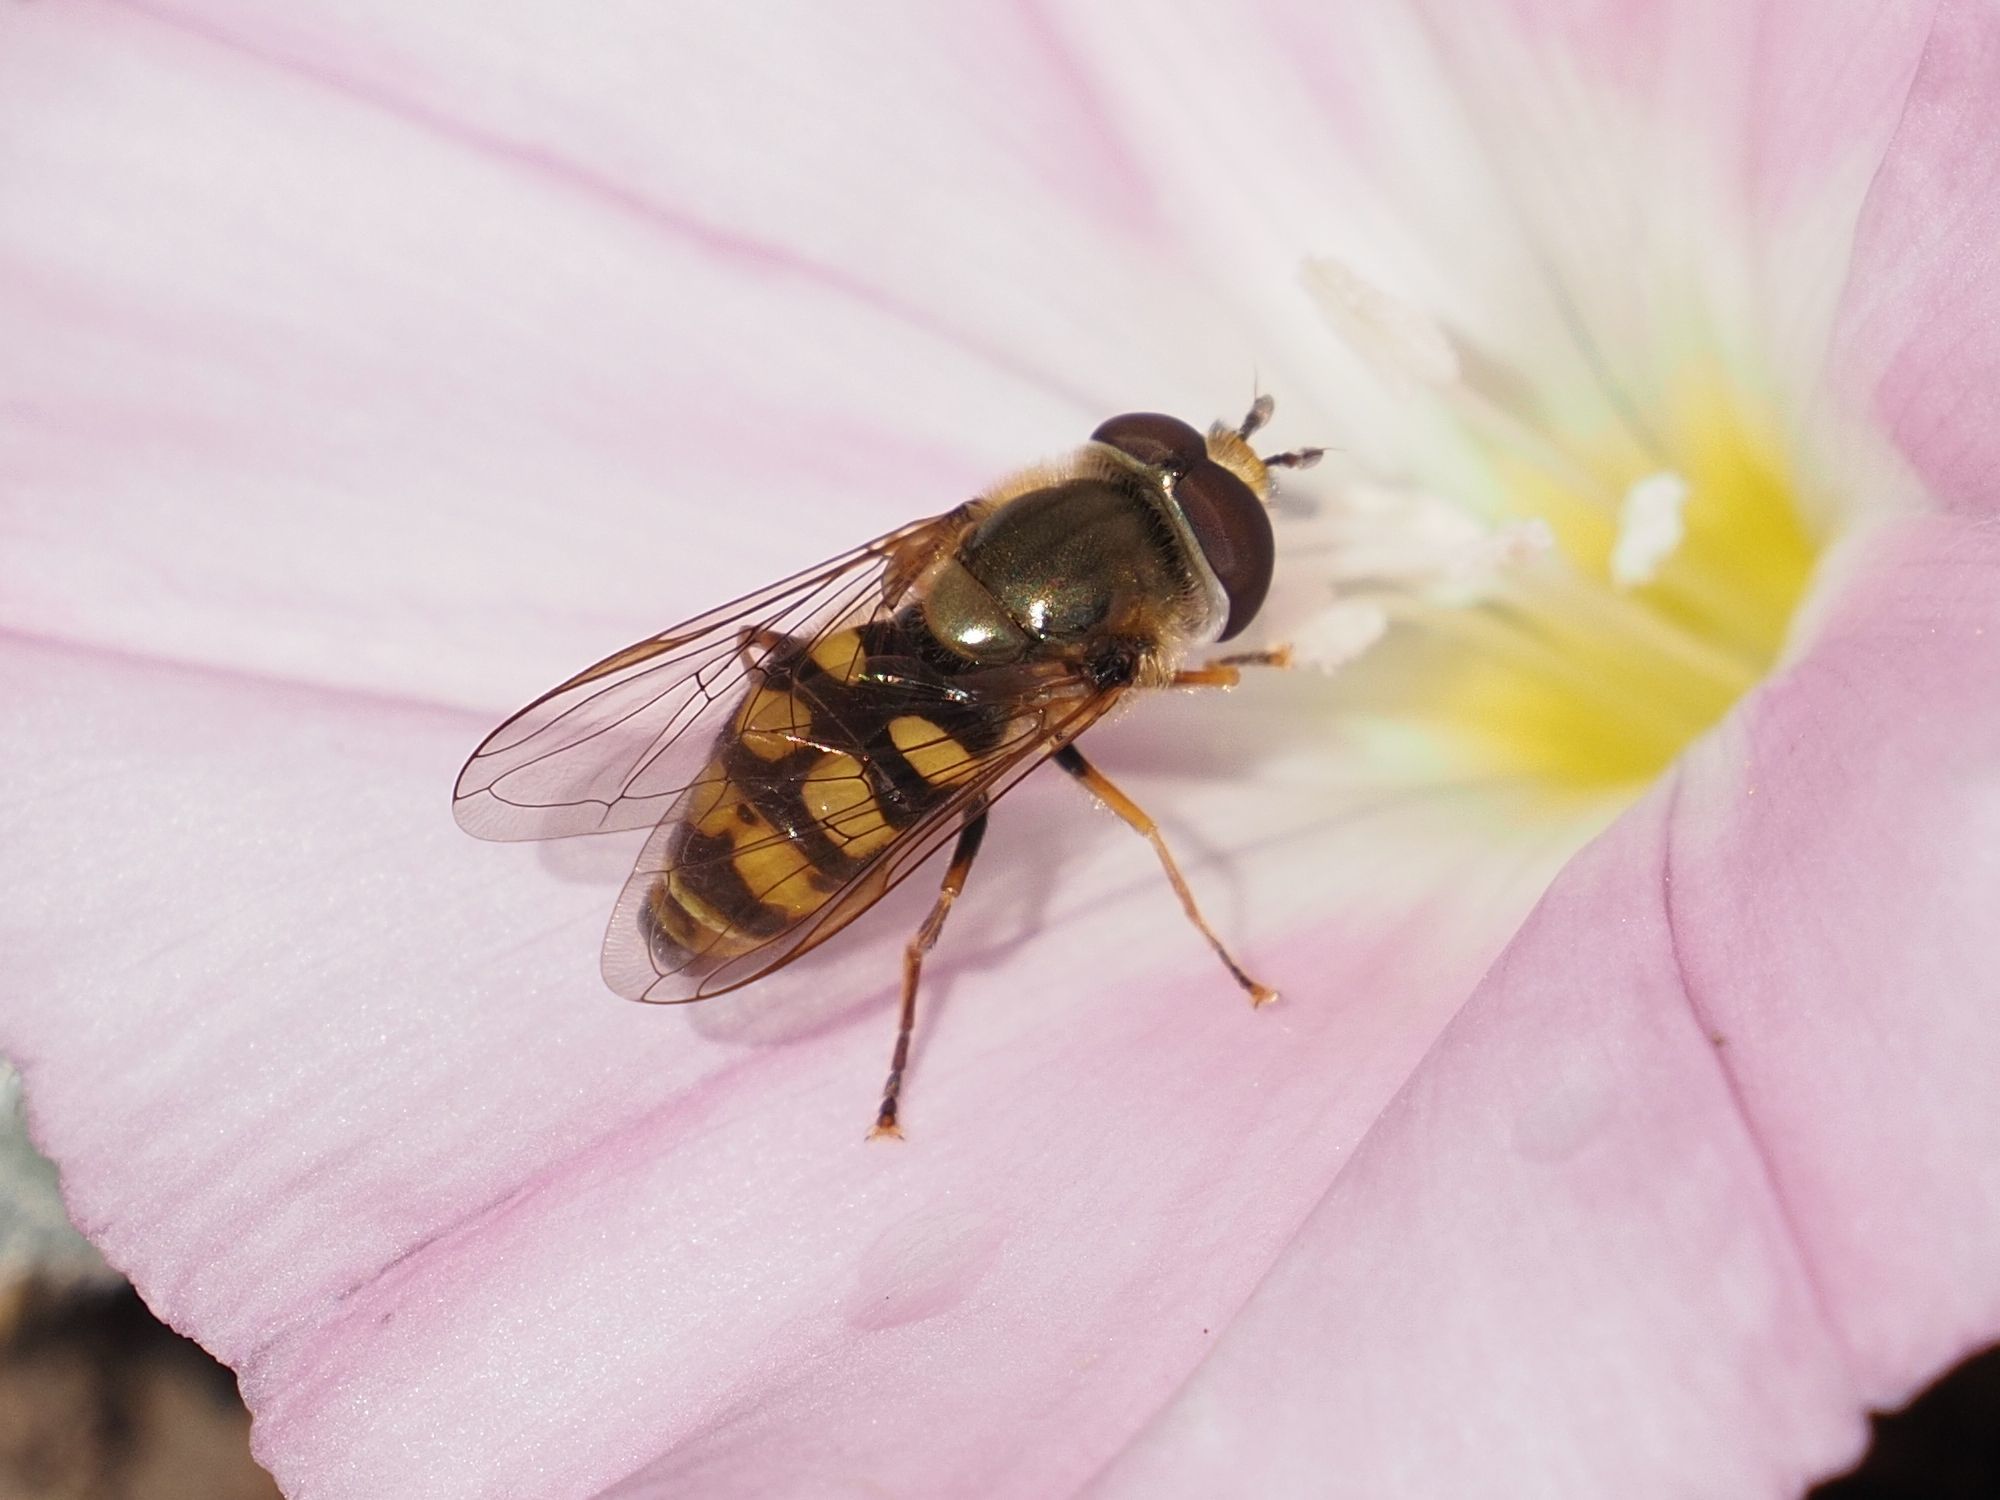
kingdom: Animalia
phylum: Arthropoda
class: Insecta
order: Diptera
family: Syrphidae
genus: Eupeodes
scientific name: Eupeodes corollae
